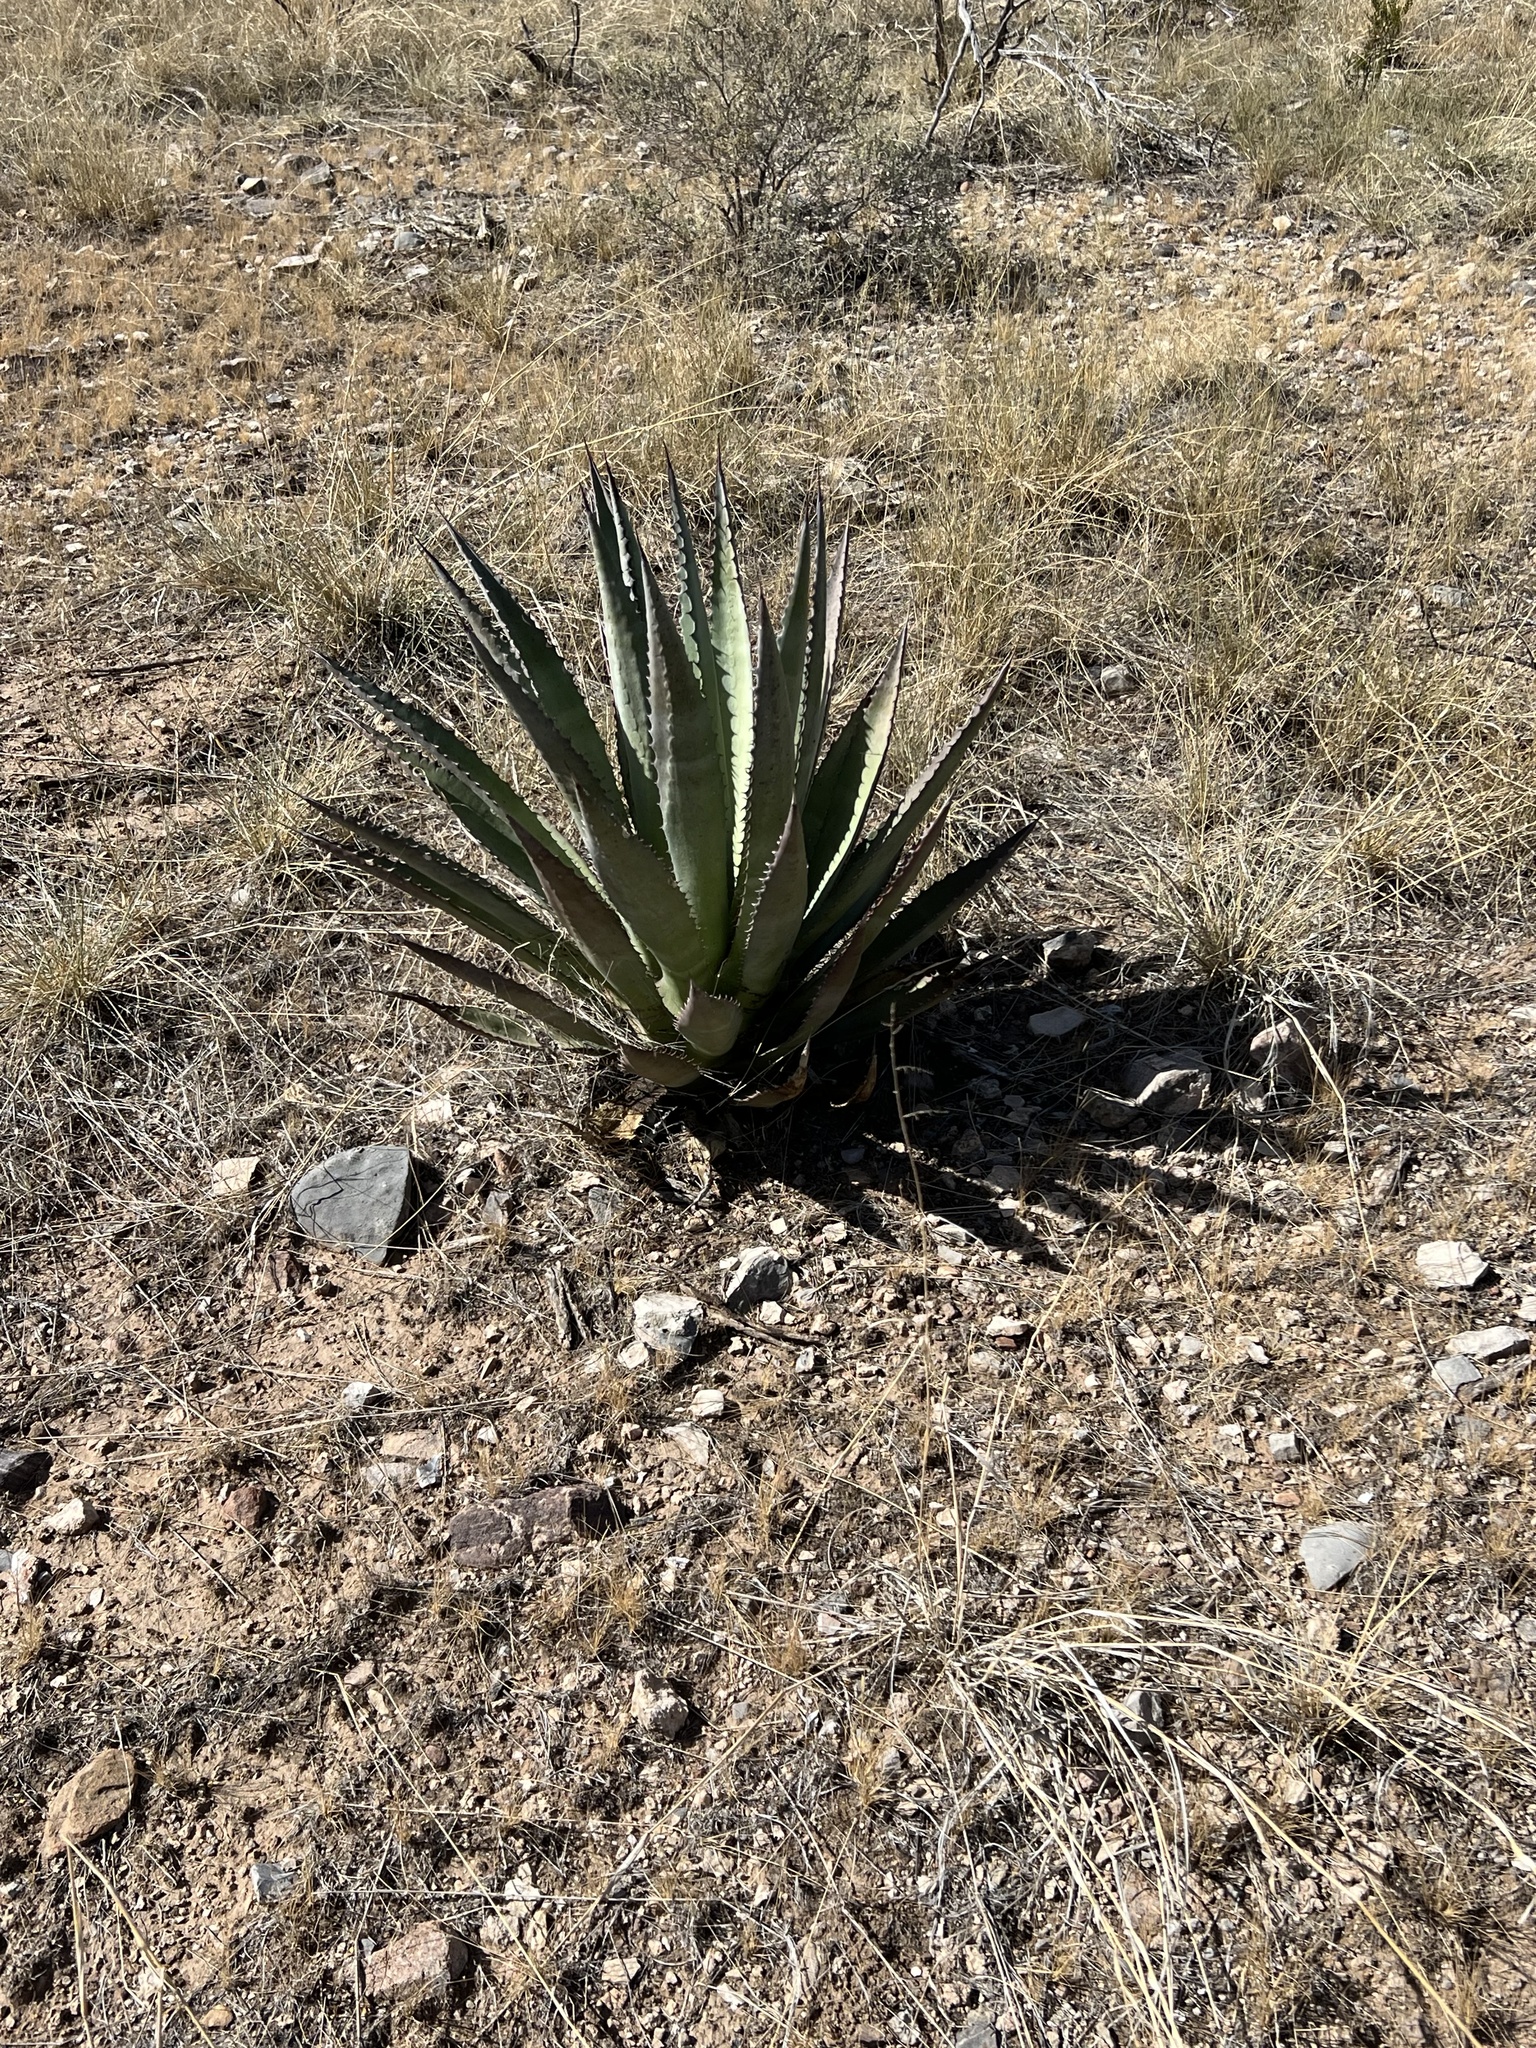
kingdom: Plantae
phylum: Tracheophyta
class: Liliopsida
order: Asparagales
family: Asparagaceae
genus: Agave
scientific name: Agave palmeri
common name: Palmer agave
